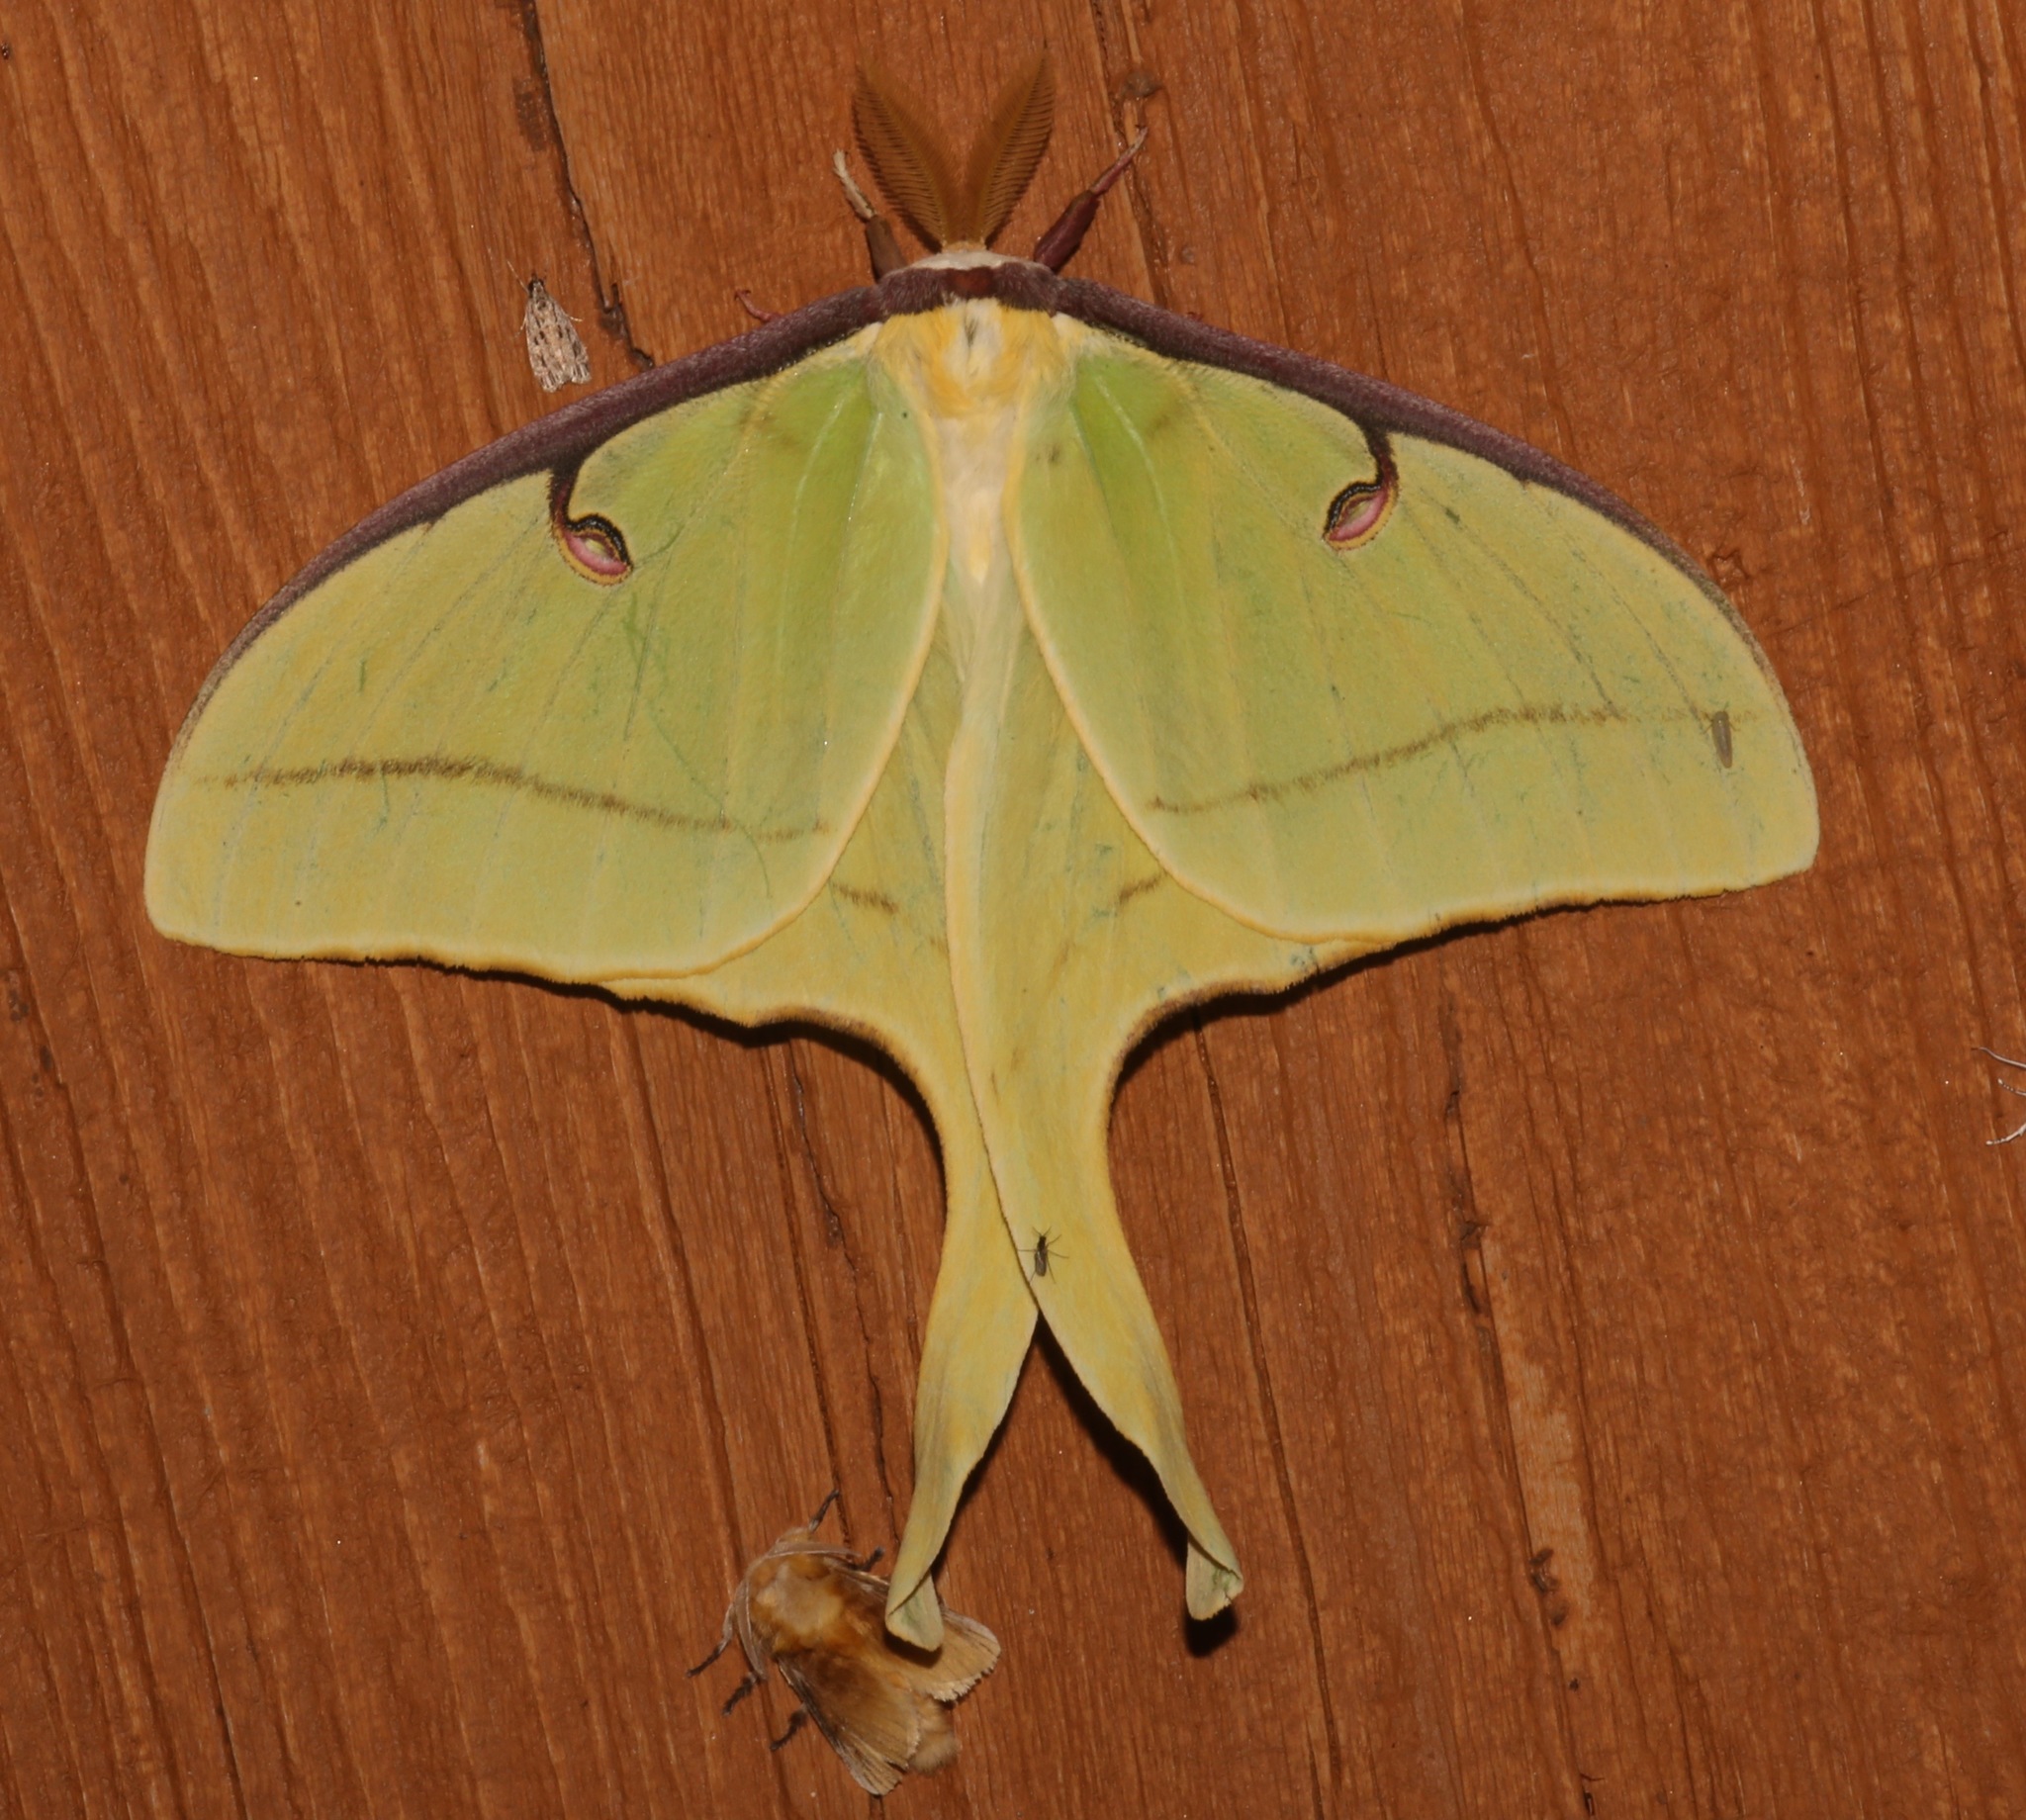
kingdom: Animalia
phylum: Arthropoda
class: Insecta
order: Lepidoptera
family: Saturniidae
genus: Actias
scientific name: Actias luna
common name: Luna moth
